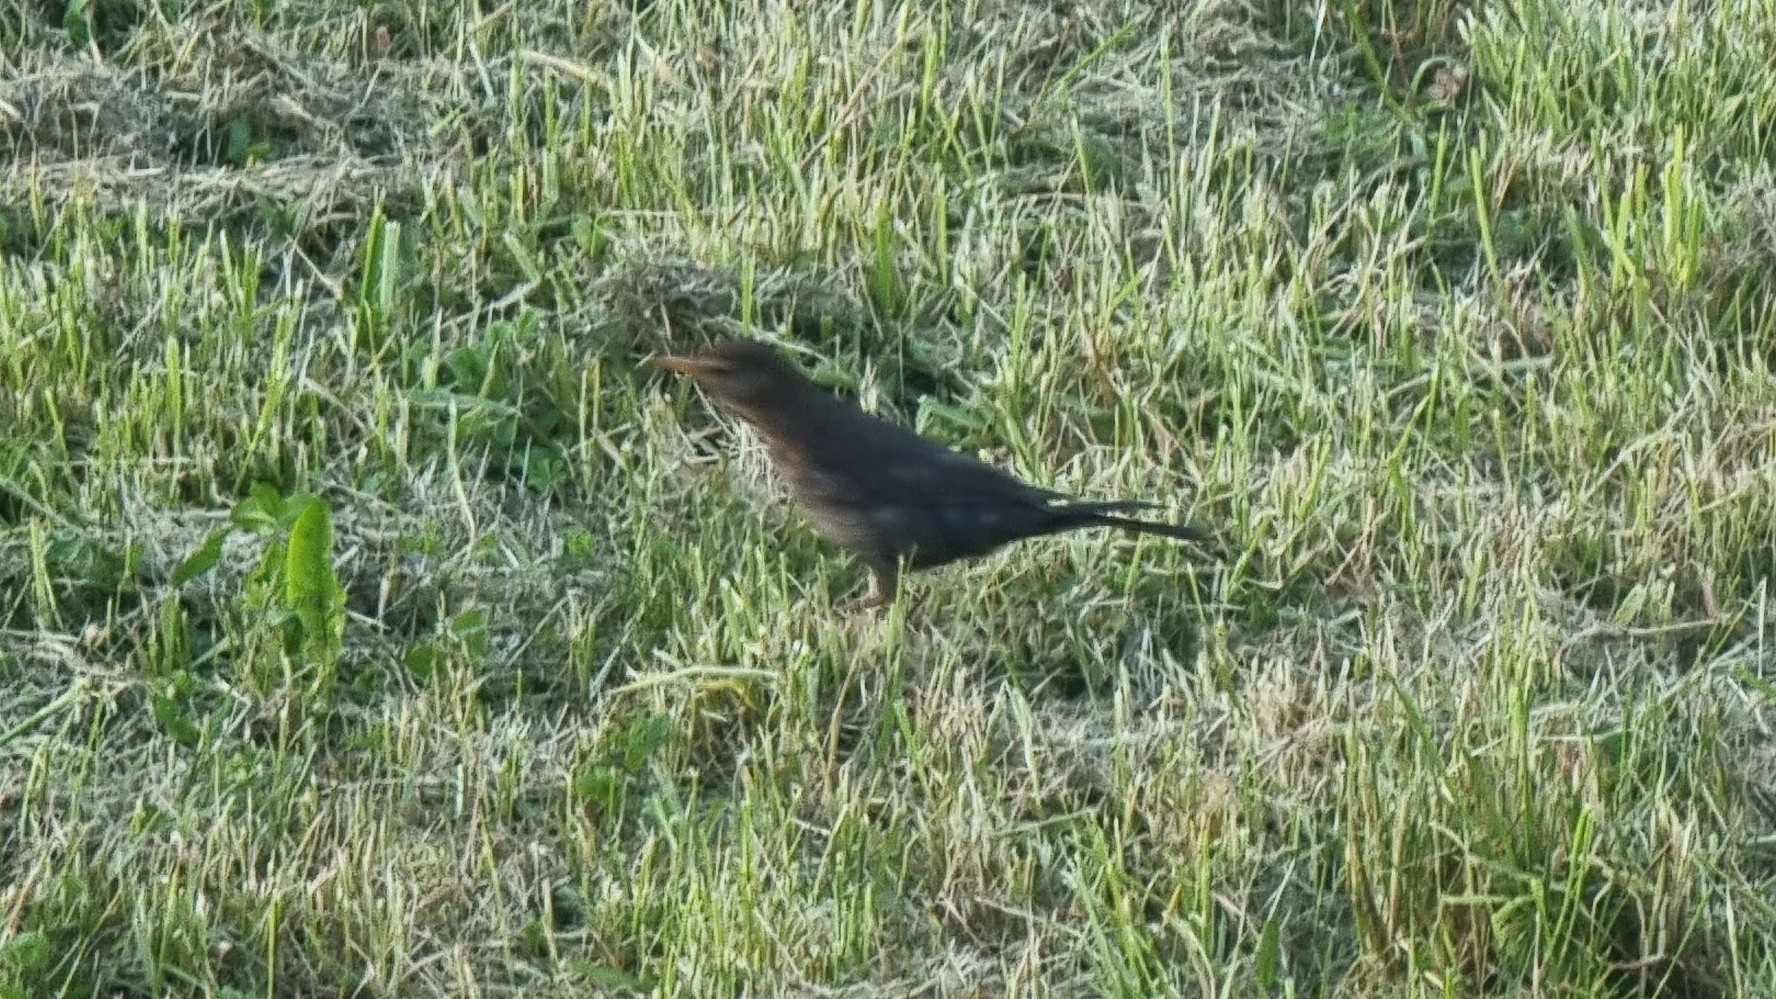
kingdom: Animalia
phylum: Chordata
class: Aves
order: Passeriformes
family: Turdidae
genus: Turdus
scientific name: Turdus merula
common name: Common blackbird
